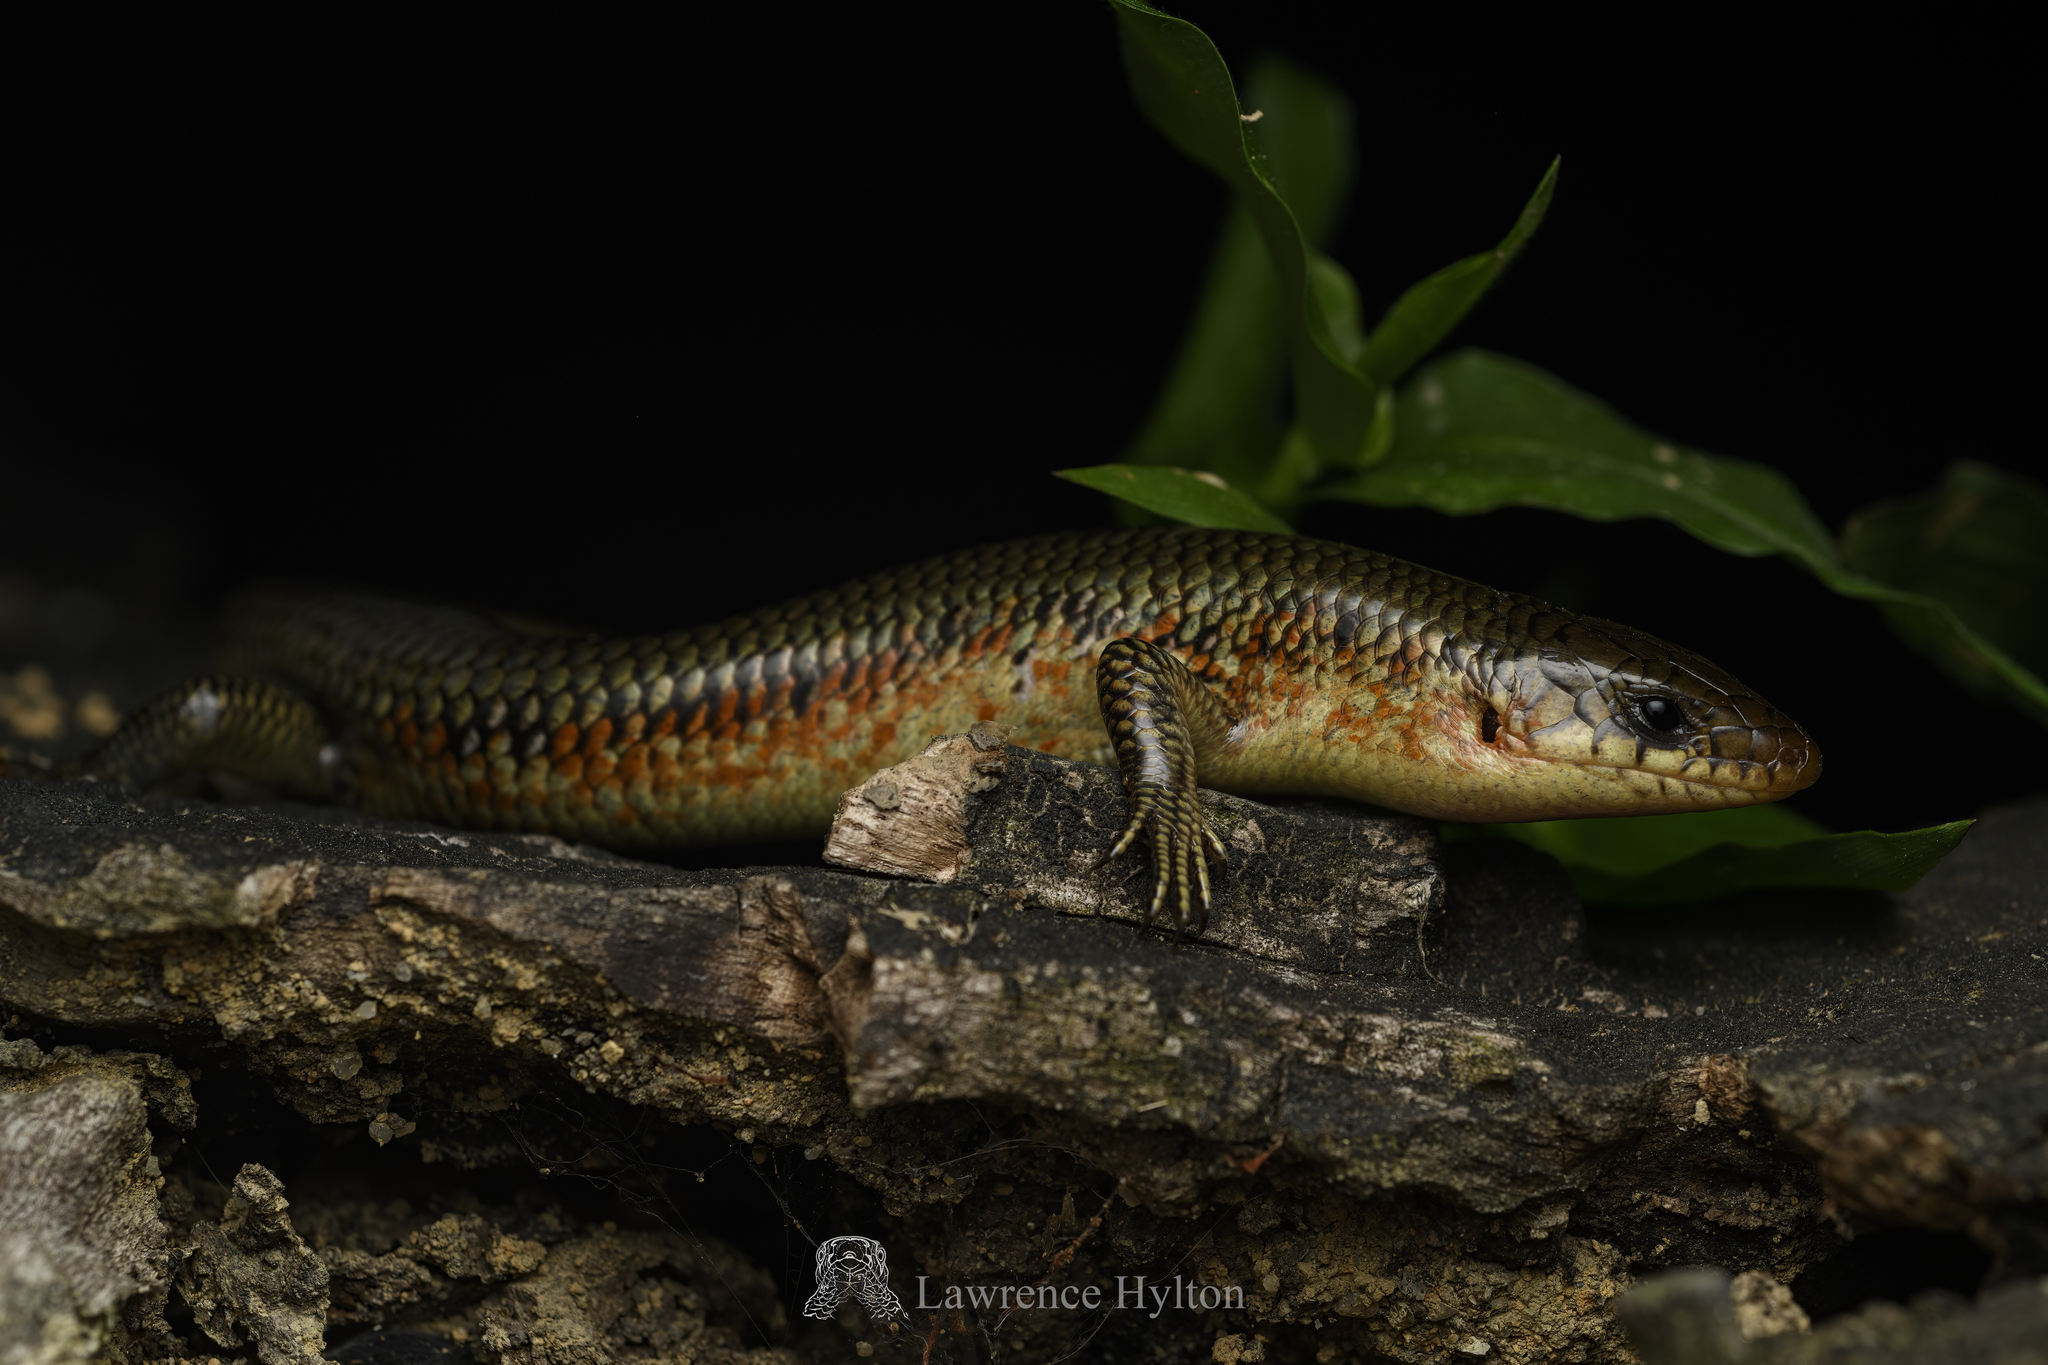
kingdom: Animalia
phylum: Chordata
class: Squamata
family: Scincidae
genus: Plestiodon
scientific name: Plestiodon chinensis
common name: Chinese blue-tailed skink
